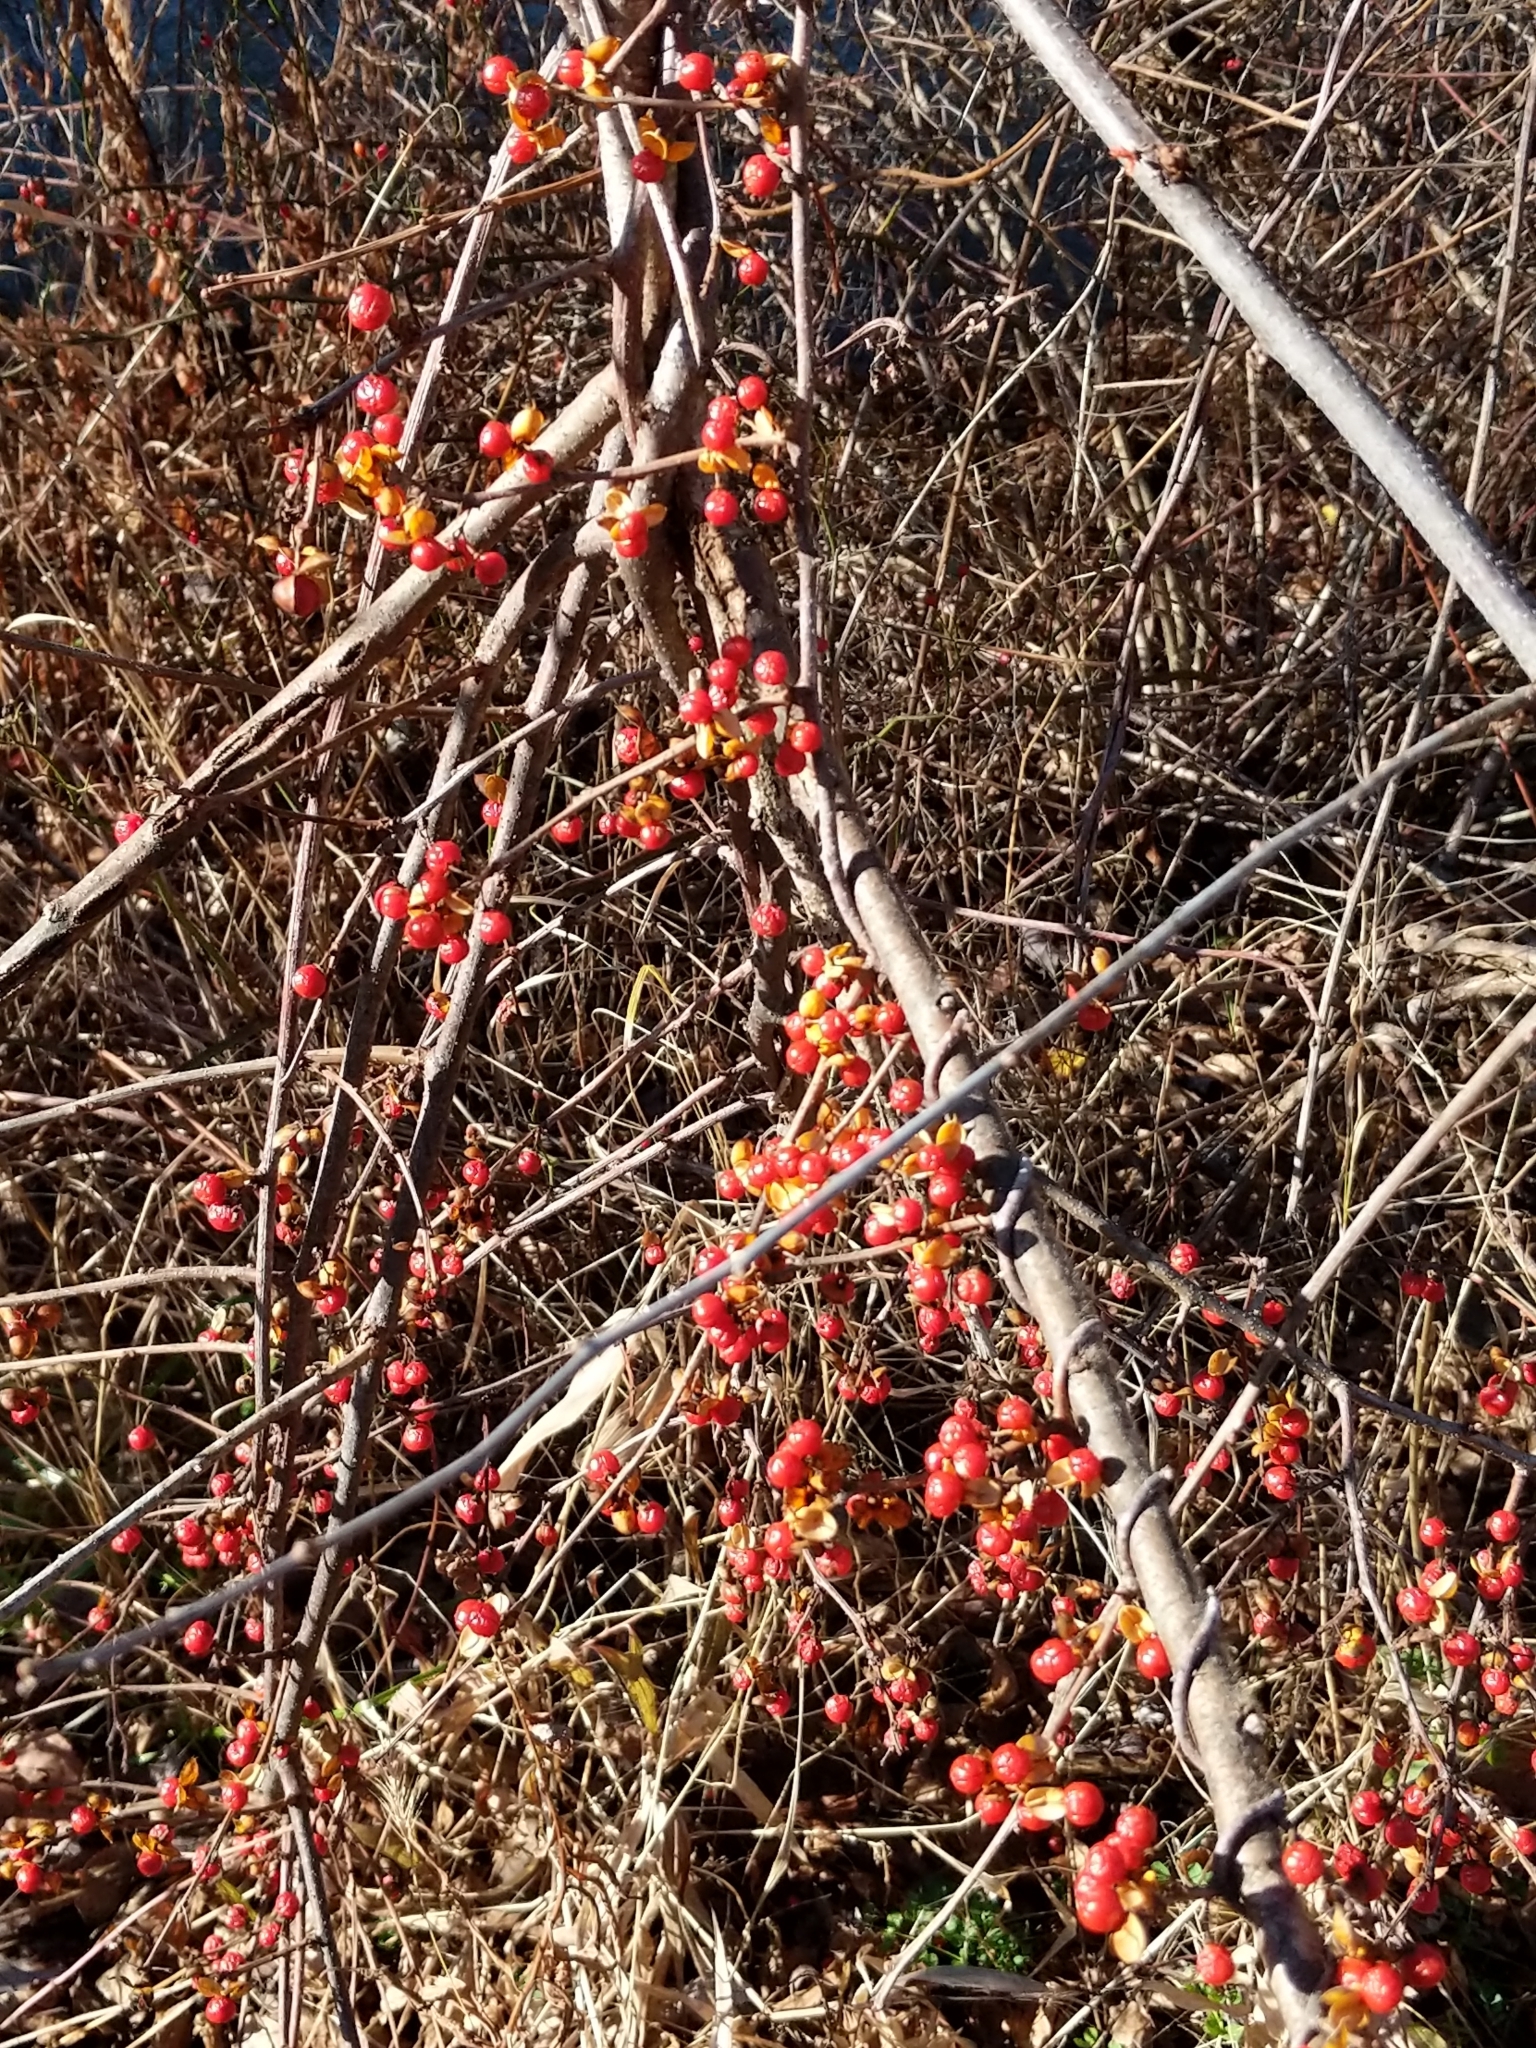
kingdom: Plantae
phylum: Tracheophyta
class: Magnoliopsida
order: Celastrales
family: Celastraceae
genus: Celastrus
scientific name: Celastrus orbiculatus
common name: Oriental bittersweet
